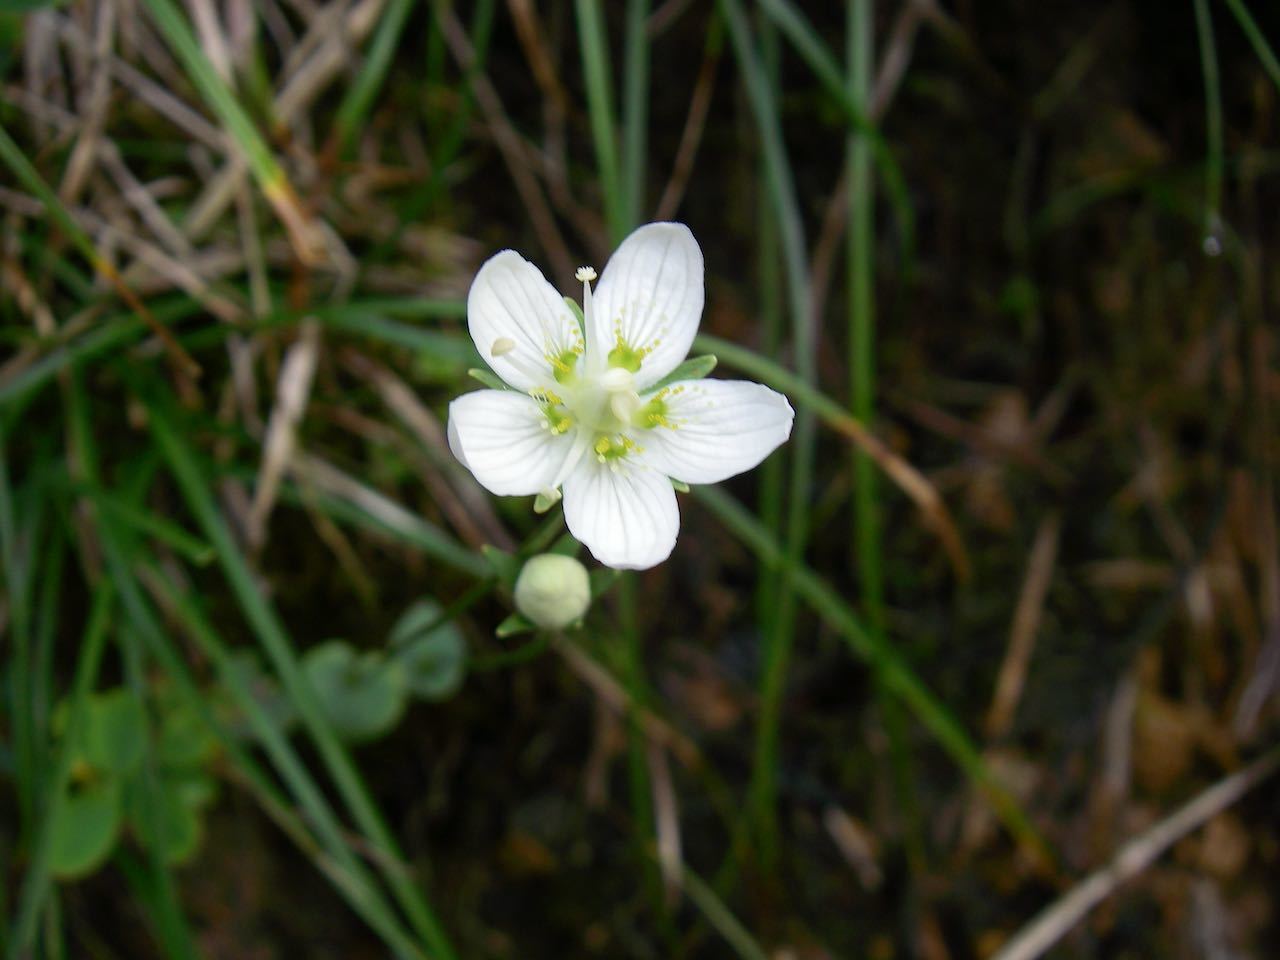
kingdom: Plantae
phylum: Tracheophyta
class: Magnoliopsida
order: Celastrales
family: Parnassiaceae
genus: Parnassia
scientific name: Parnassia palustris
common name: Grass-of-parnassus
